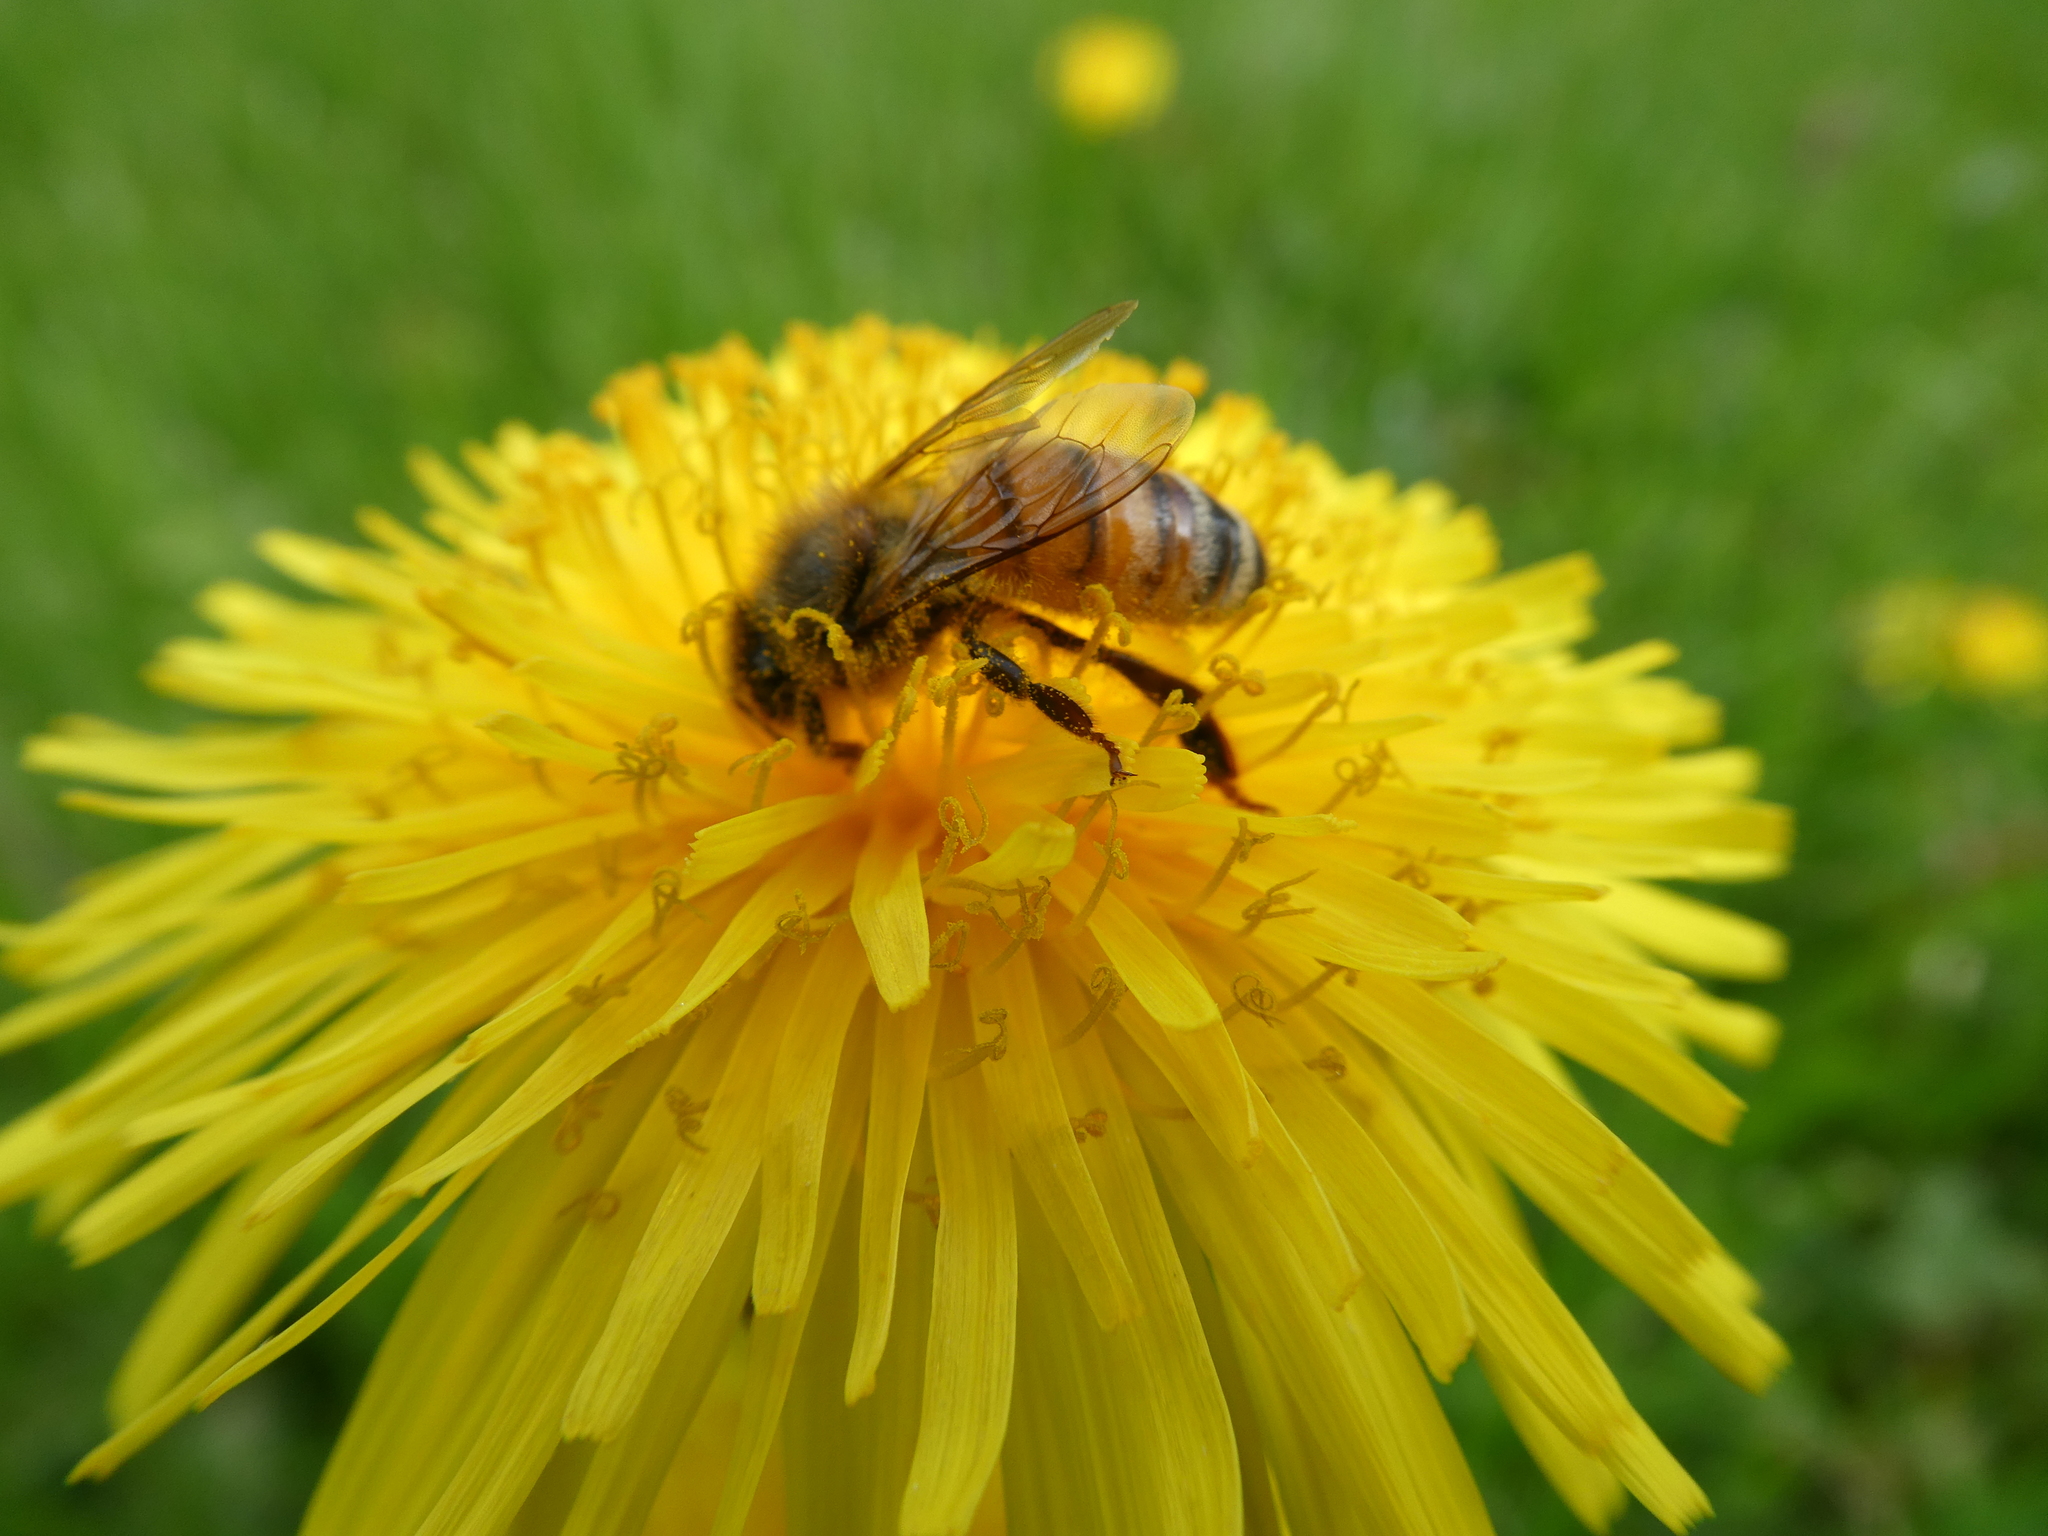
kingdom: Animalia
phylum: Arthropoda
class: Insecta
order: Hymenoptera
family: Apidae
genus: Apis
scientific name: Apis mellifera
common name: Honey bee
